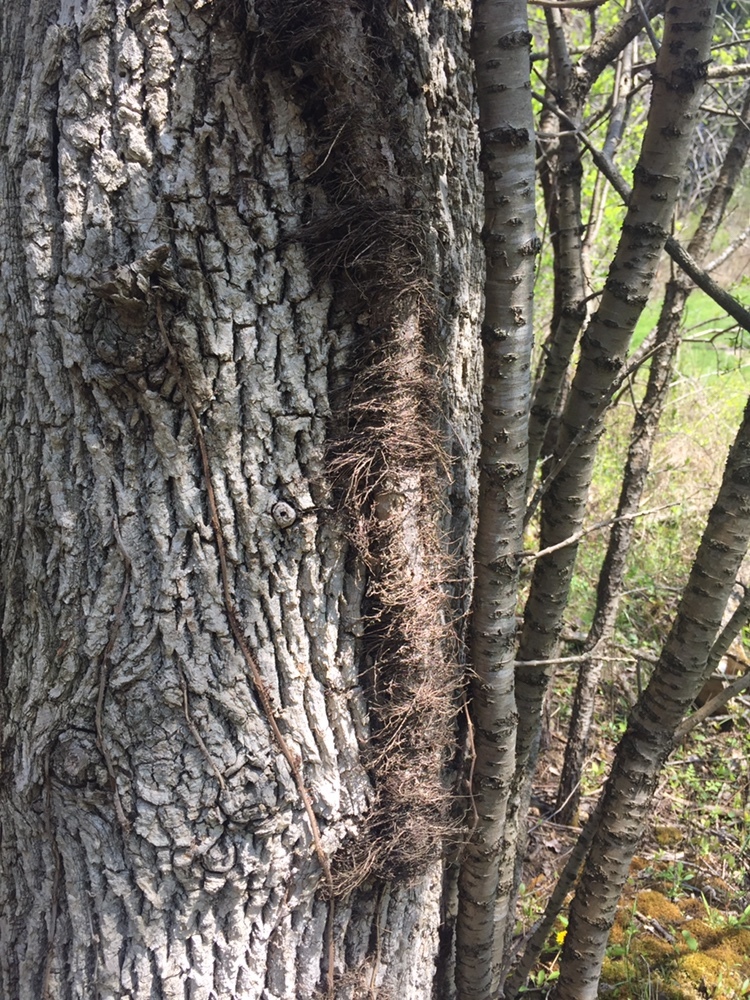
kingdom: Plantae
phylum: Tracheophyta
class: Magnoliopsida
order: Sapindales
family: Anacardiaceae
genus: Toxicodendron
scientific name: Toxicodendron radicans
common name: Poison ivy
